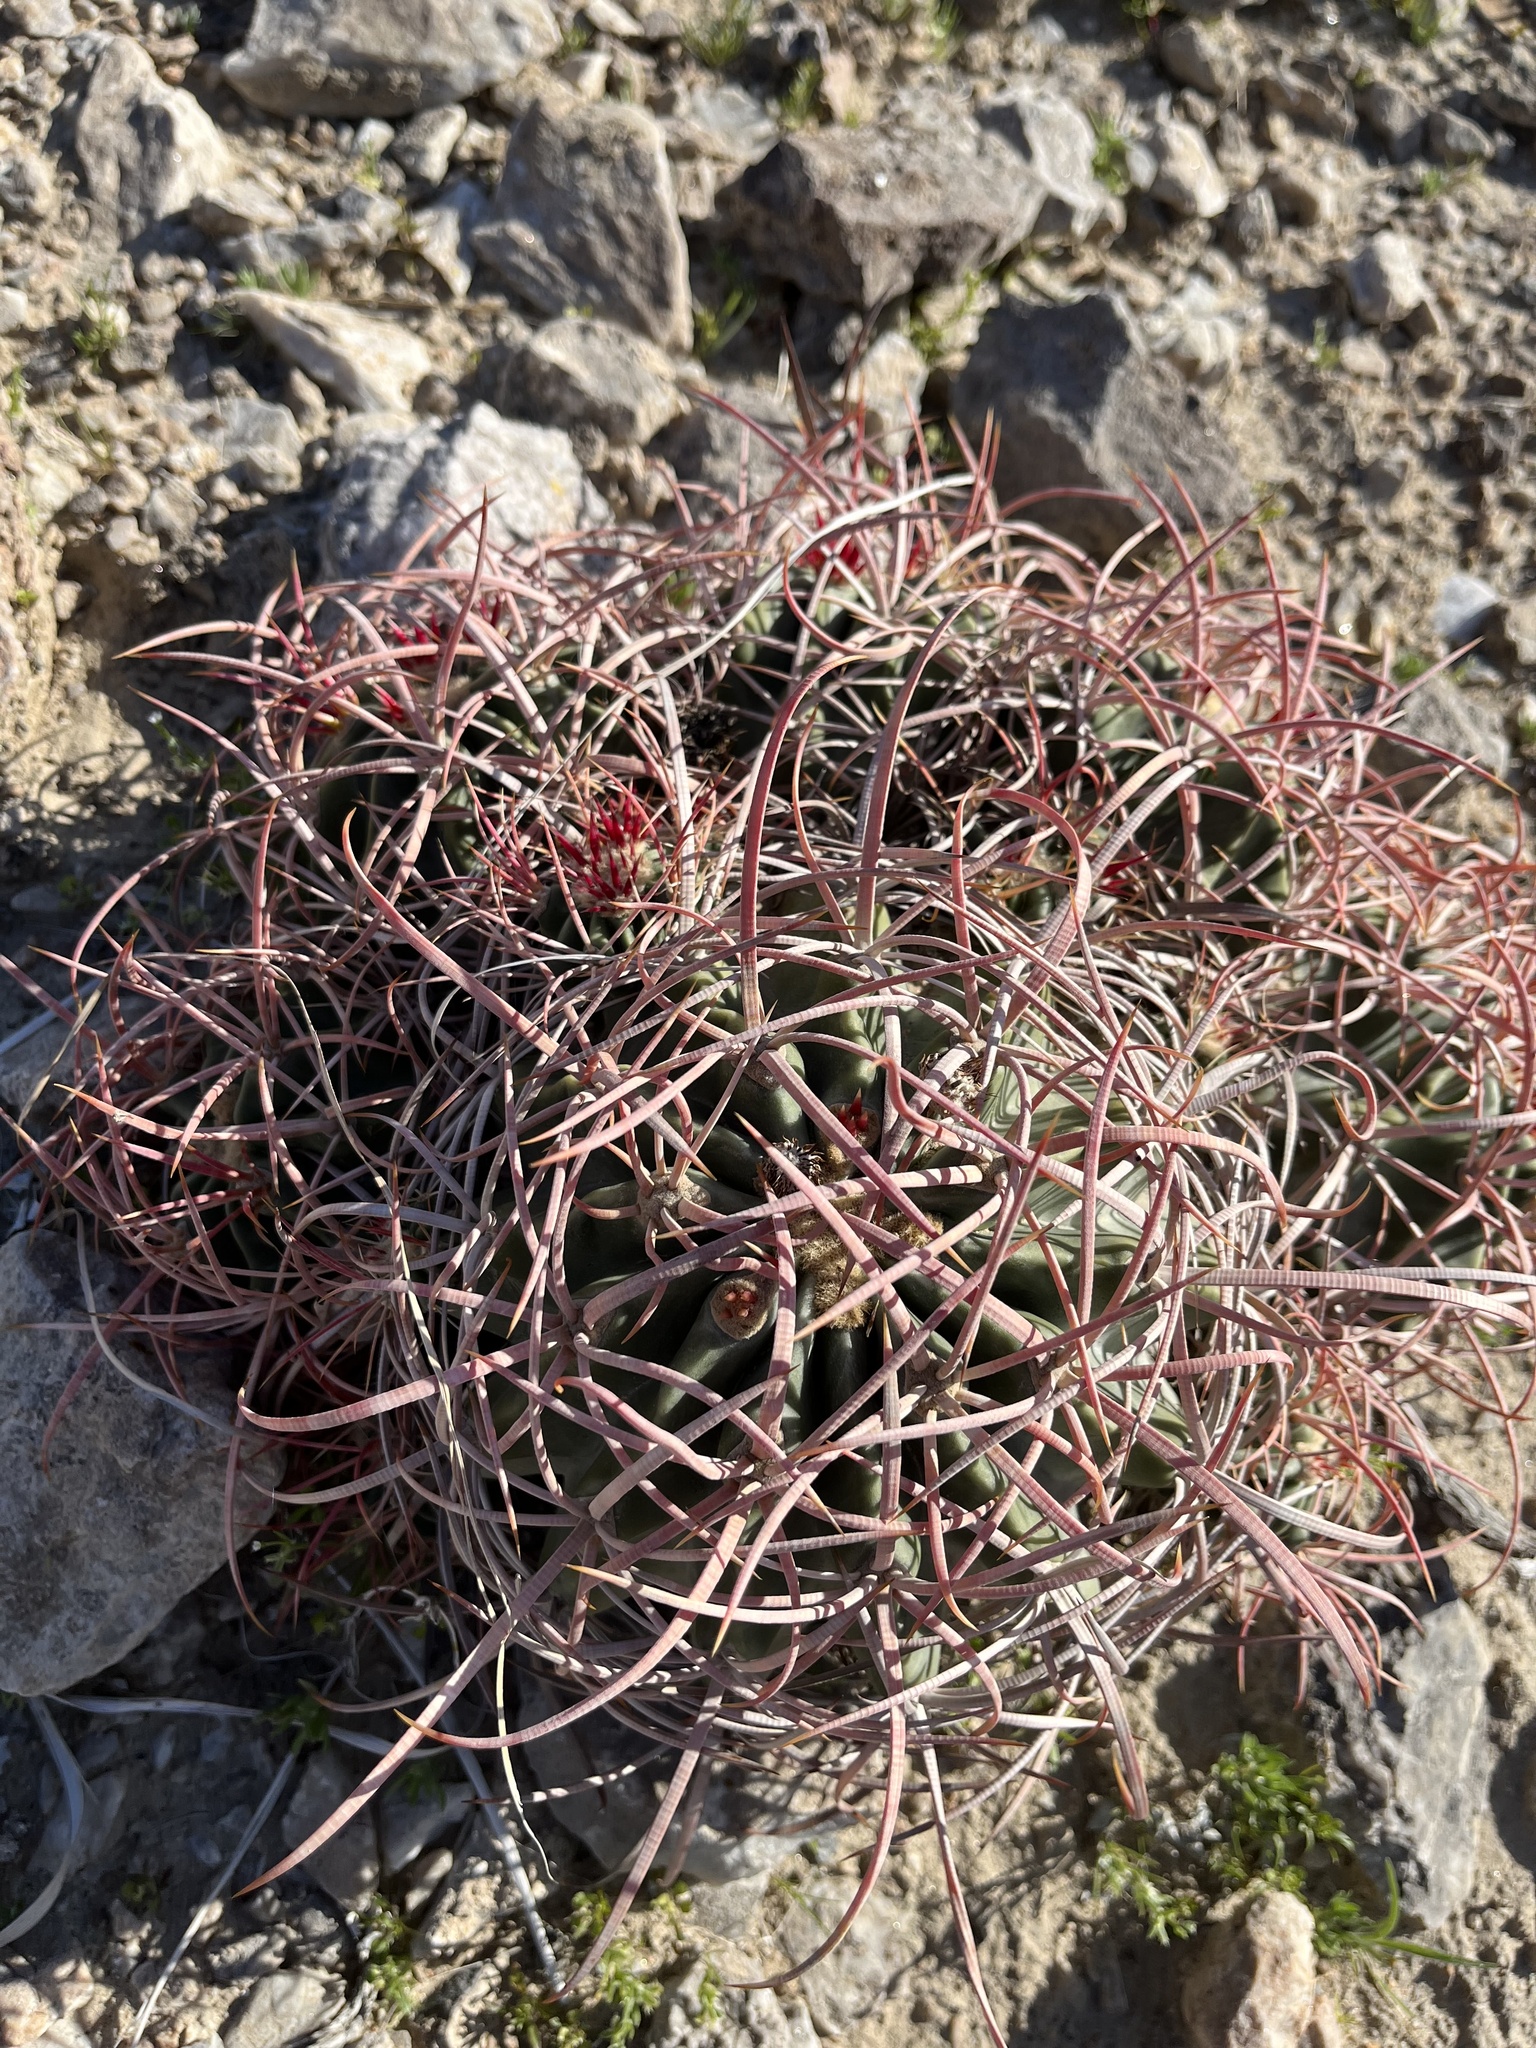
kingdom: Plantae
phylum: Tracheophyta
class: Magnoliopsida
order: Caryophyllales
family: Cactaceae
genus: Echinocactus
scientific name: Echinocactus polycephalus
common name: Cottontop cactus
